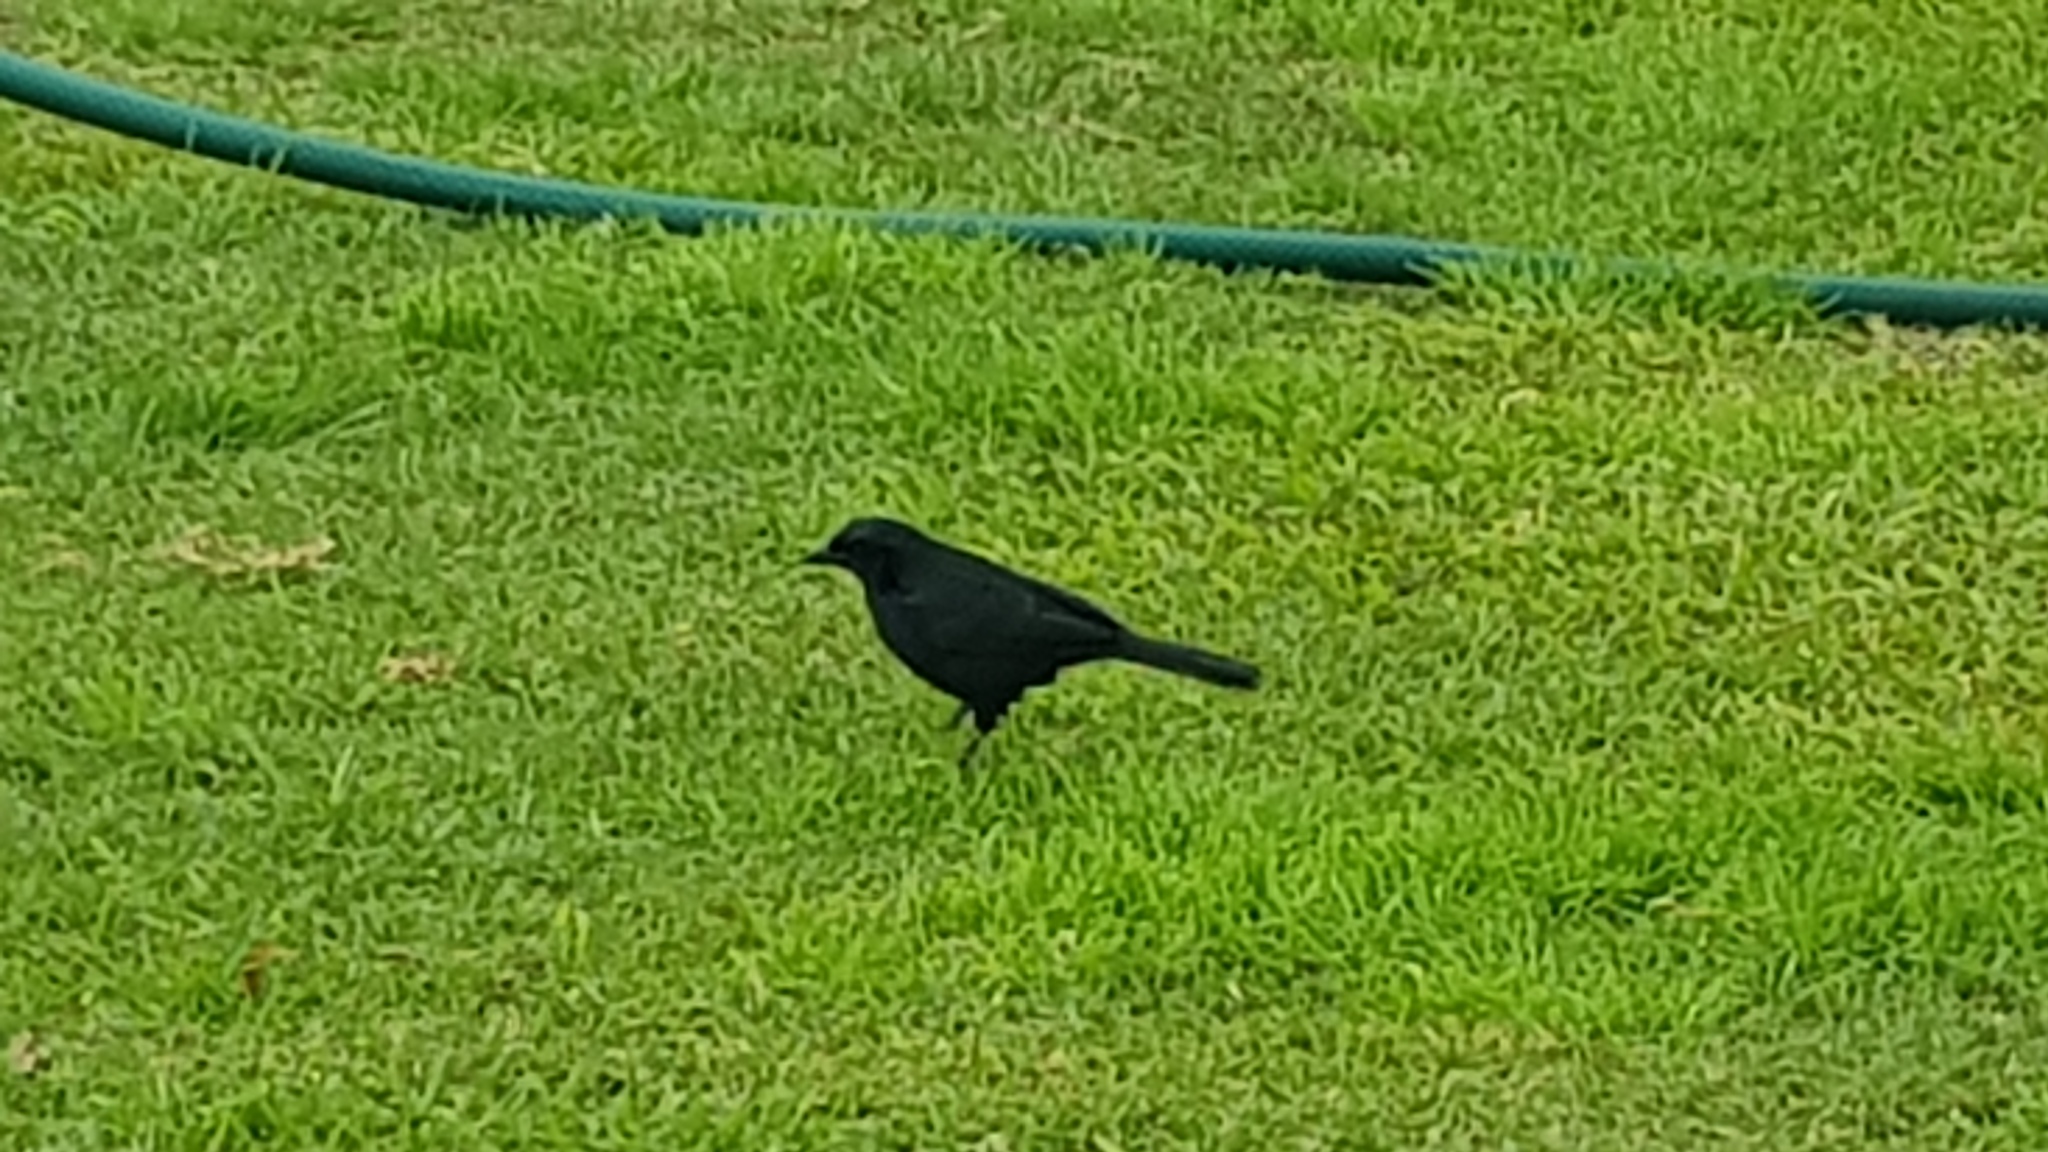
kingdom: Animalia
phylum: Chordata
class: Aves
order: Passeriformes
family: Icteridae
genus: Dives
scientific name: Dives warczewiczi
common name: Scrub blackbird
